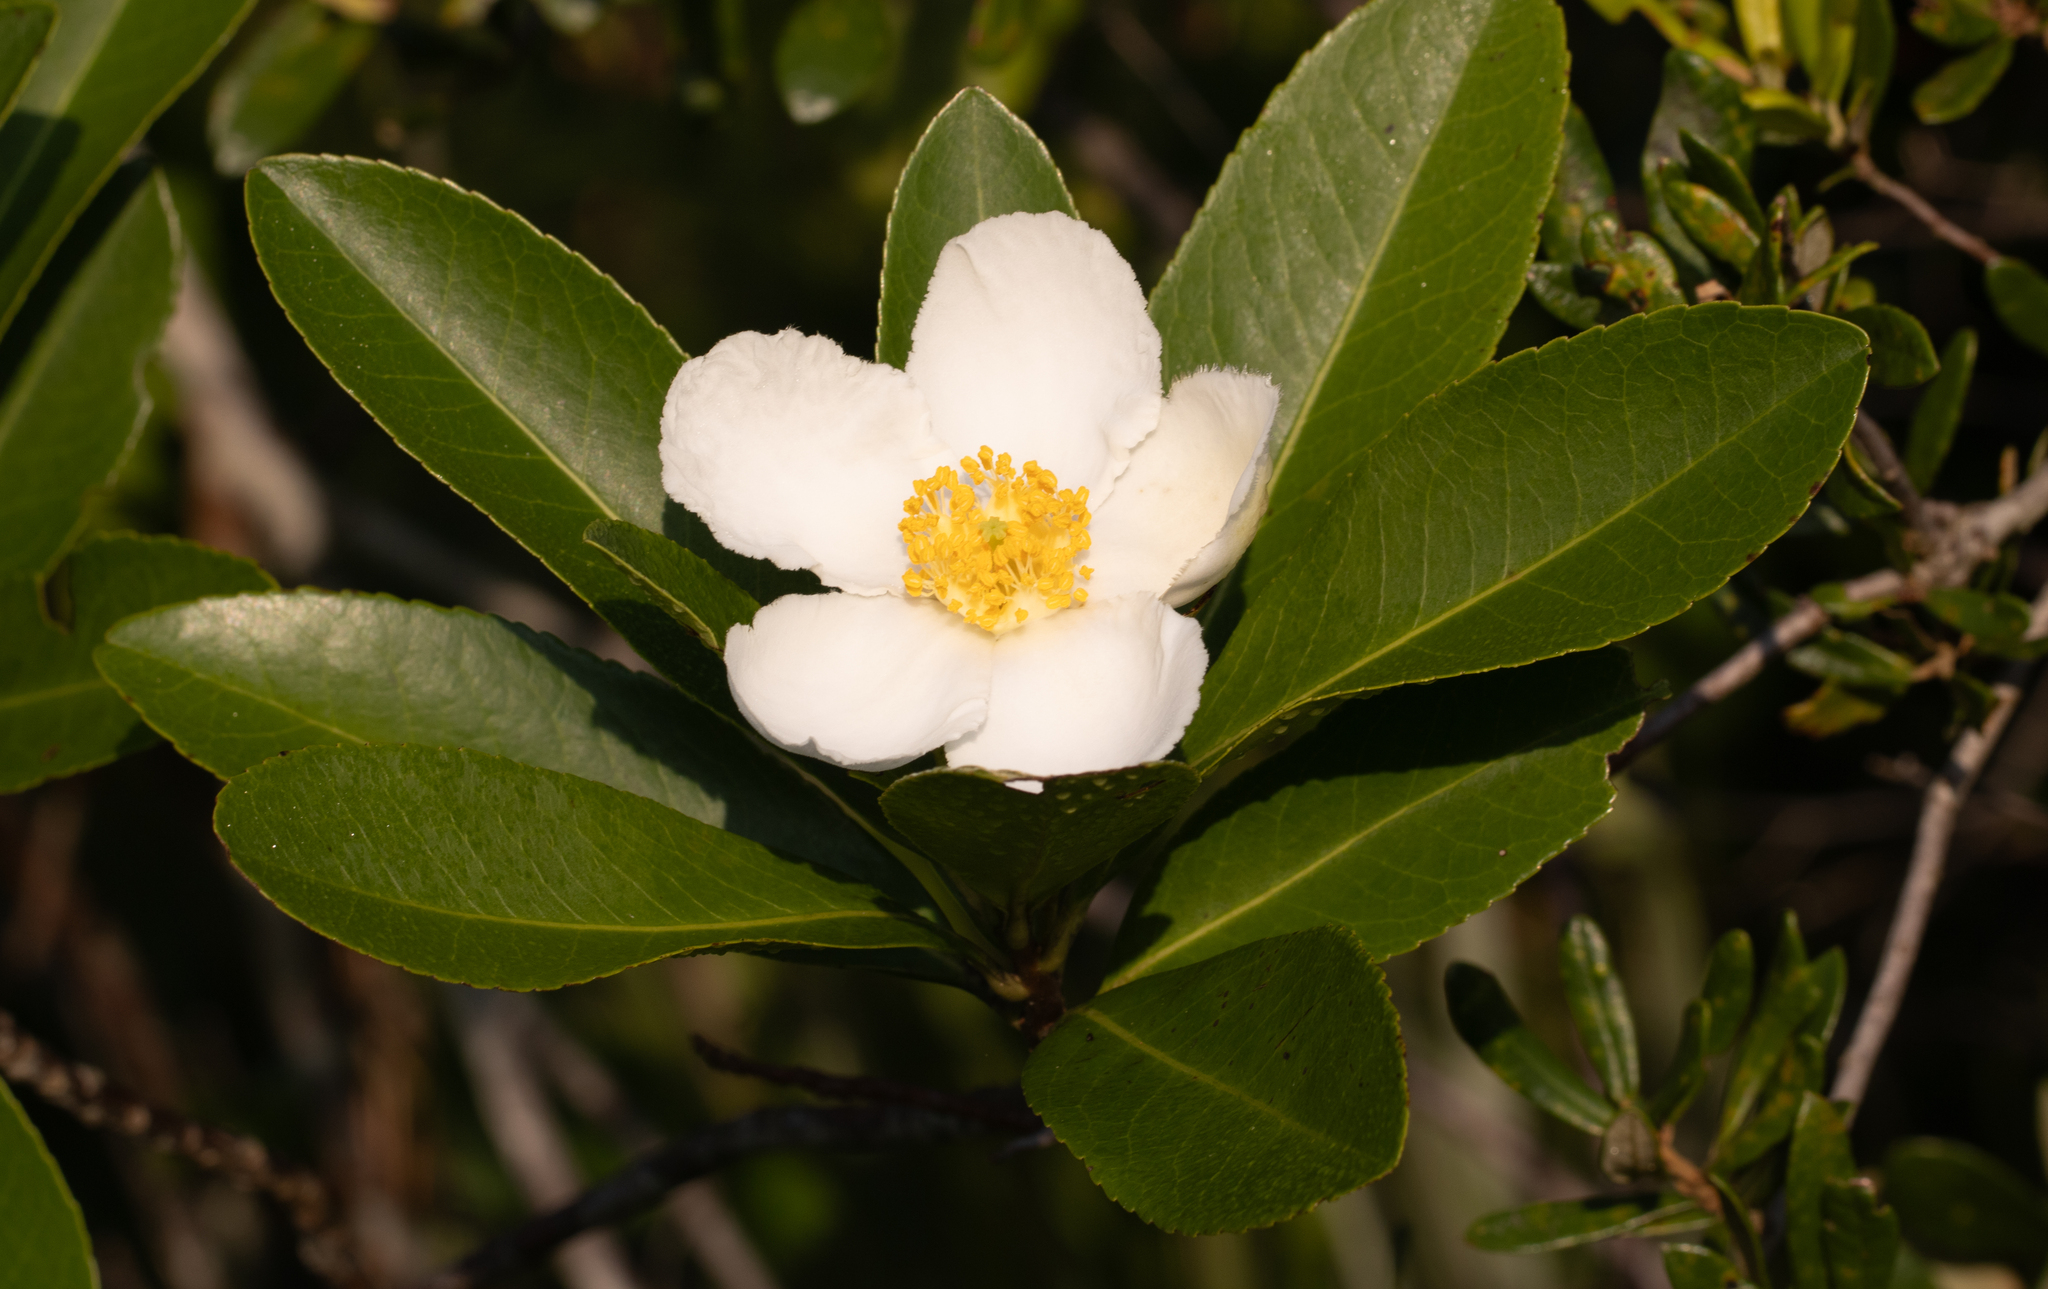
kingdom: Plantae
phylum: Tracheophyta
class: Magnoliopsida
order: Ericales
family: Theaceae
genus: Gordonia
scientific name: Gordonia lasianthus
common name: Loblolly bay
